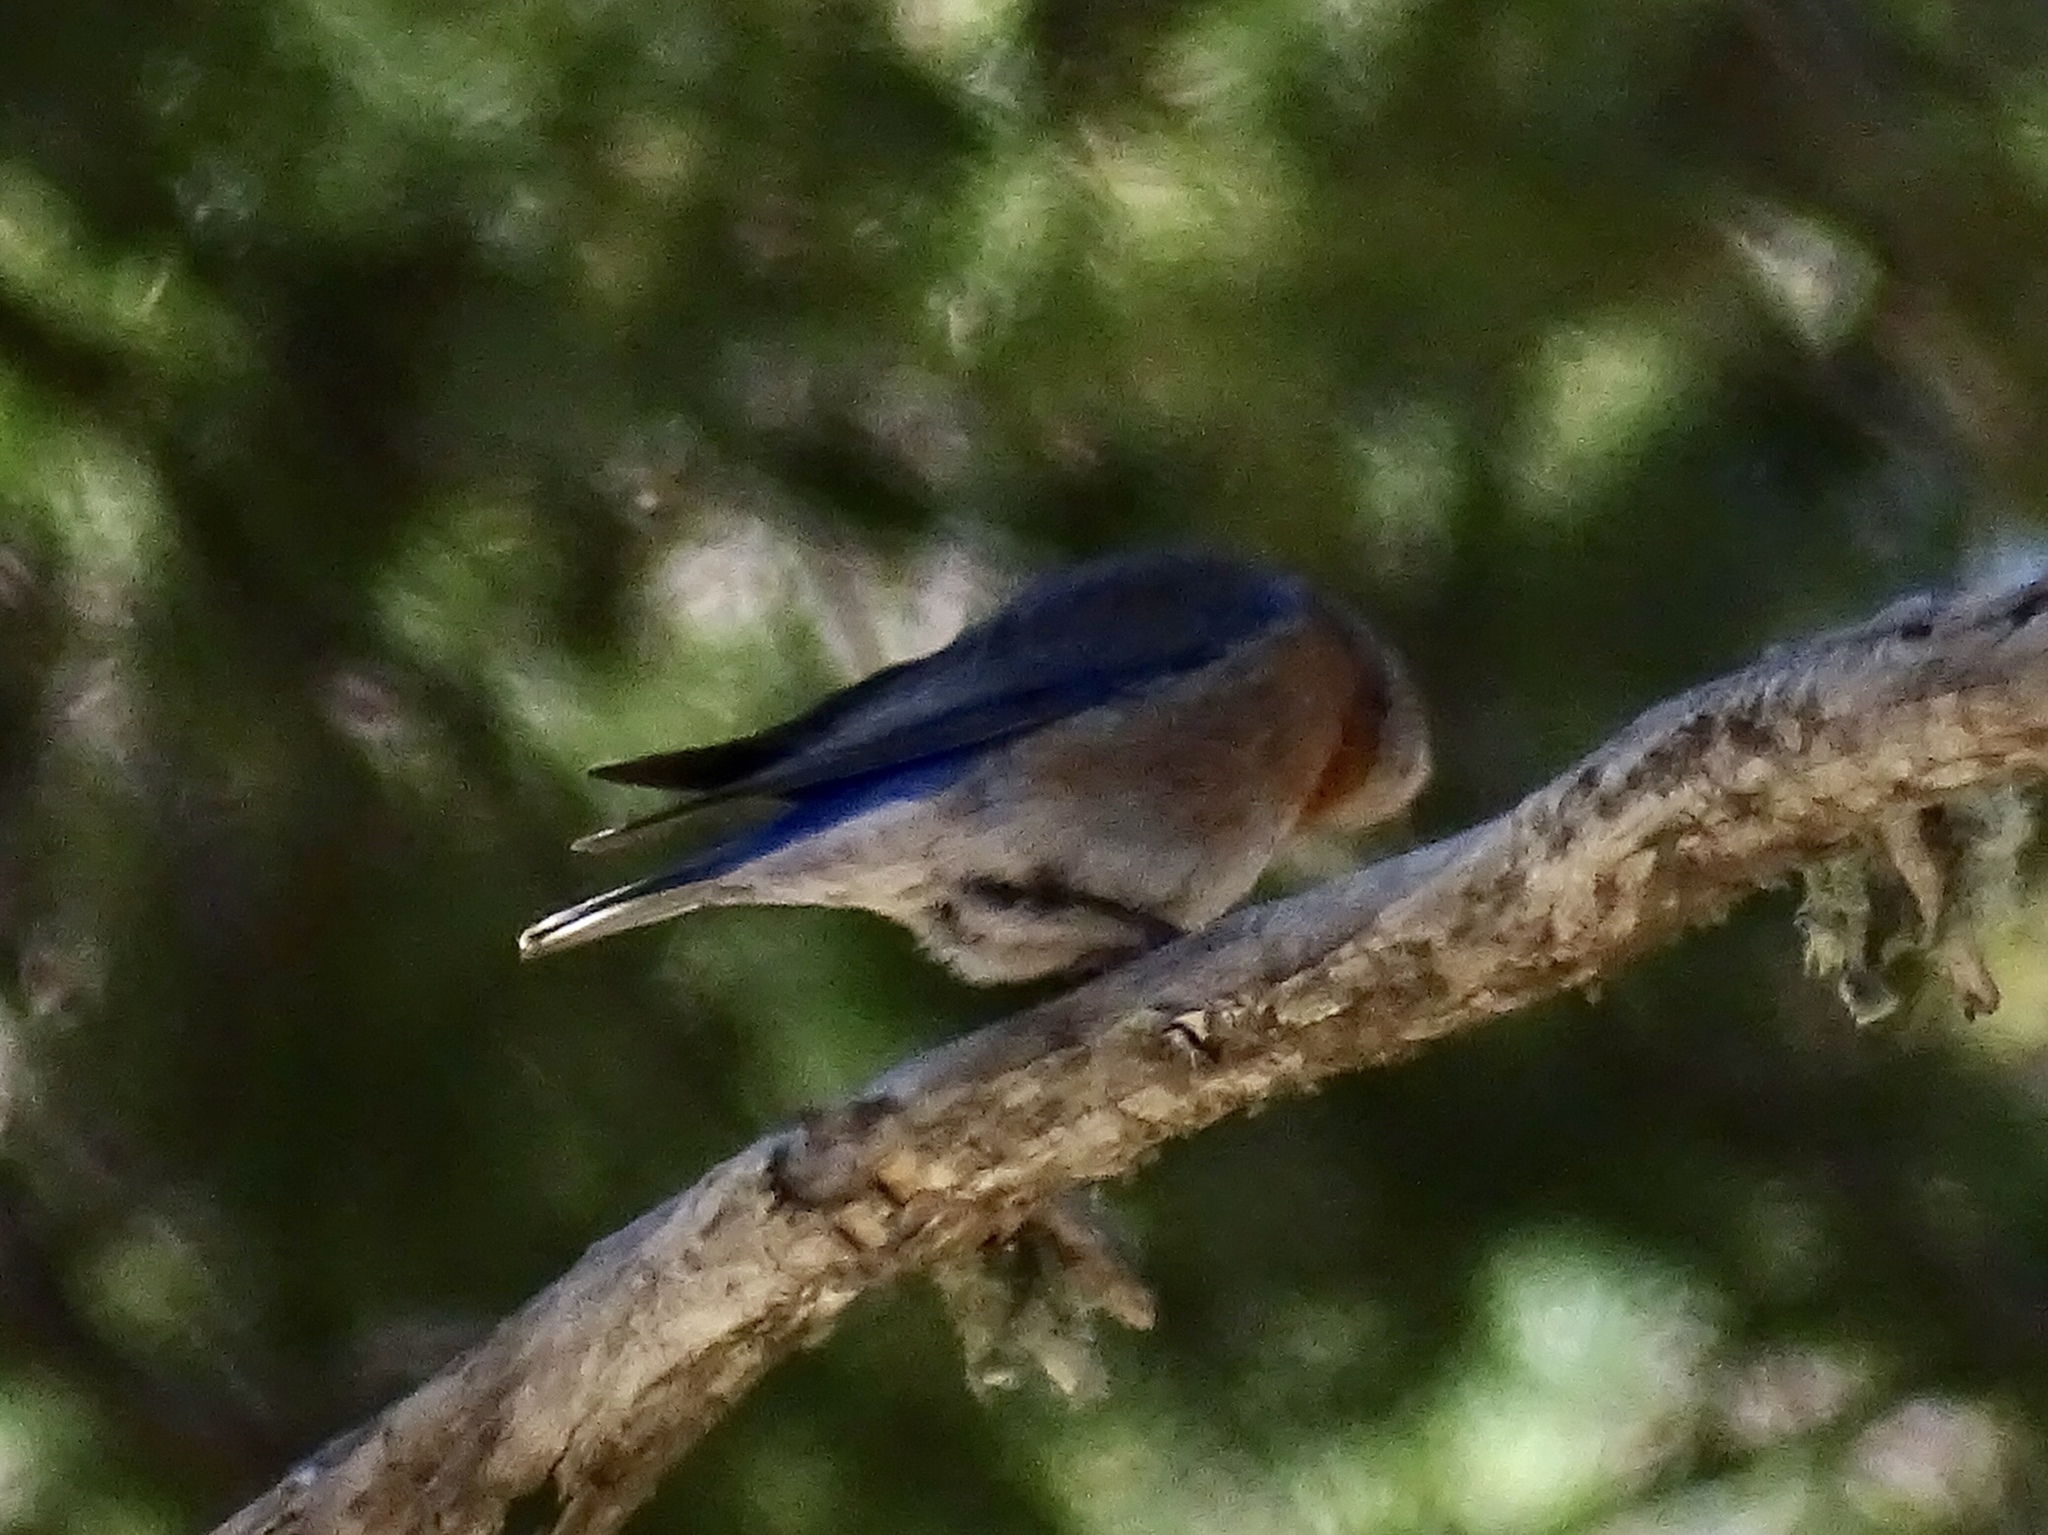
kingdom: Animalia
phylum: Chordata
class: Aves
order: Passeriformes
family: Turdidae
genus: Sialia
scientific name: Sialia mexicana
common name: Western bluebird
